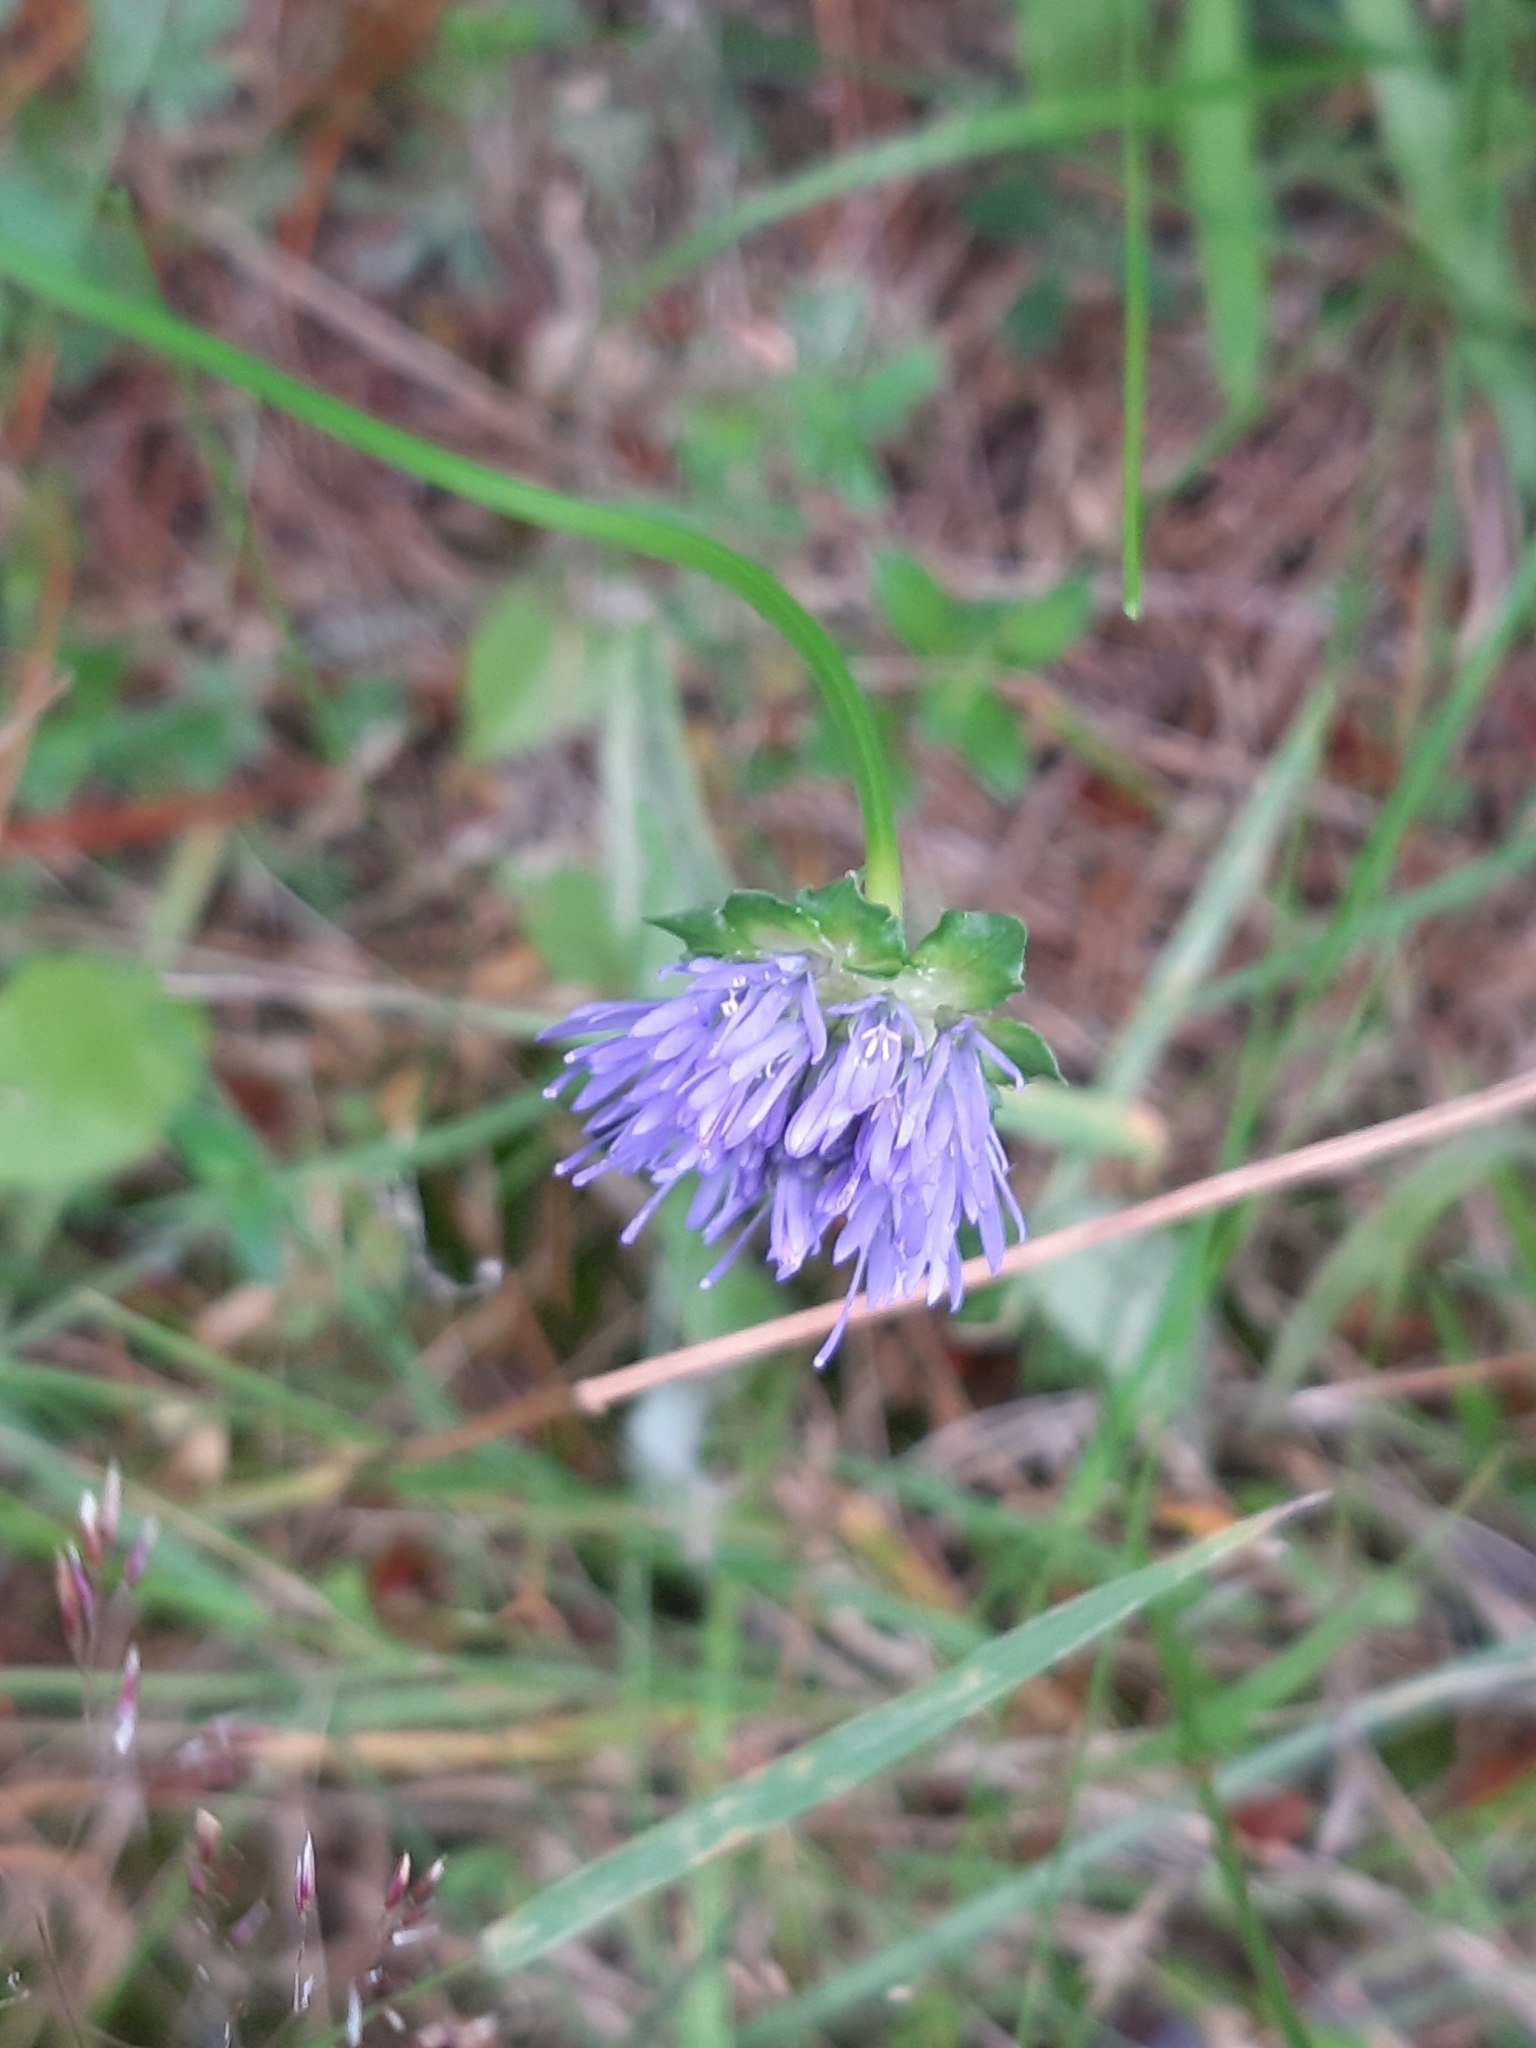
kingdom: Plantae
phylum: Tracheophyta
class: Magnoliopsida
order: Asterales
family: Campanulaceae
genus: Jasione
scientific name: Jasione montana
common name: Sheep's-bit
